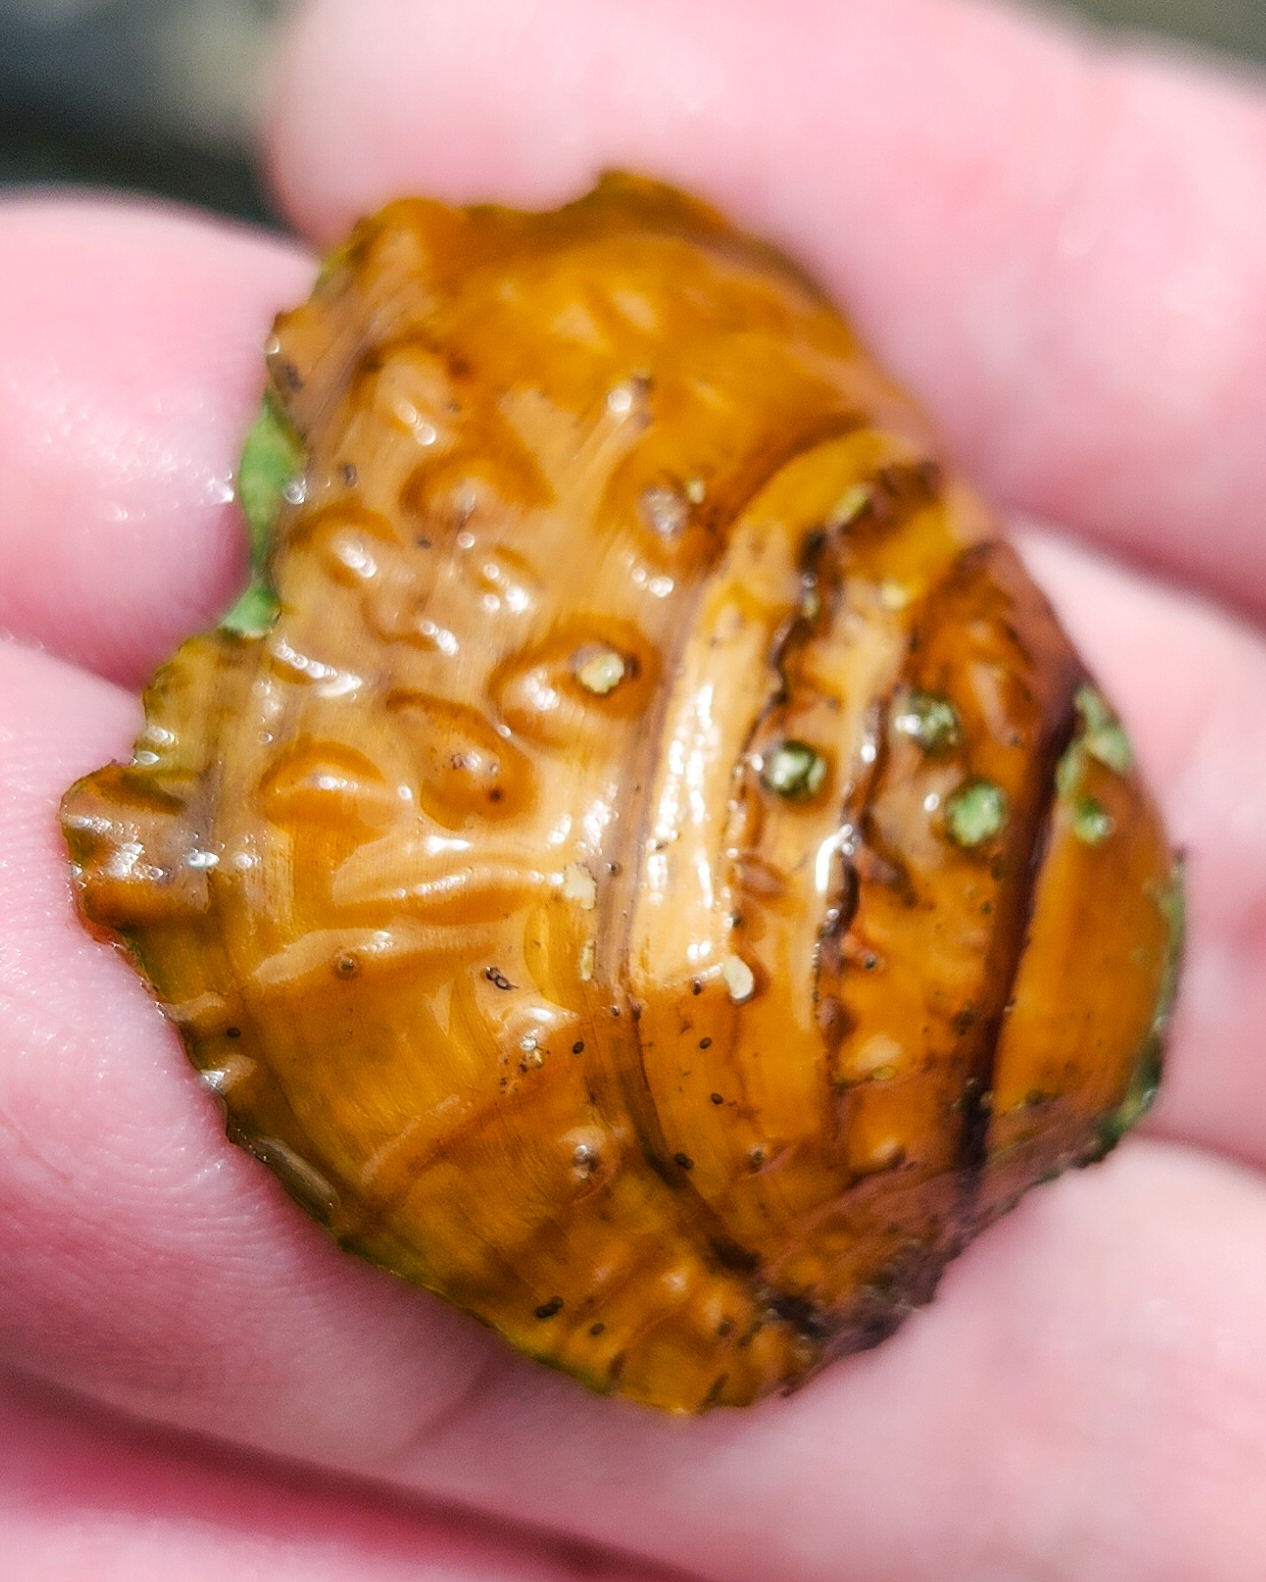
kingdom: Animalia
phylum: Mollusca
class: Bivalvia
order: Unionida
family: Unionidae
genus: Cyclonaias
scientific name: Cyclonaias kieneriana
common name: Coosa orb
